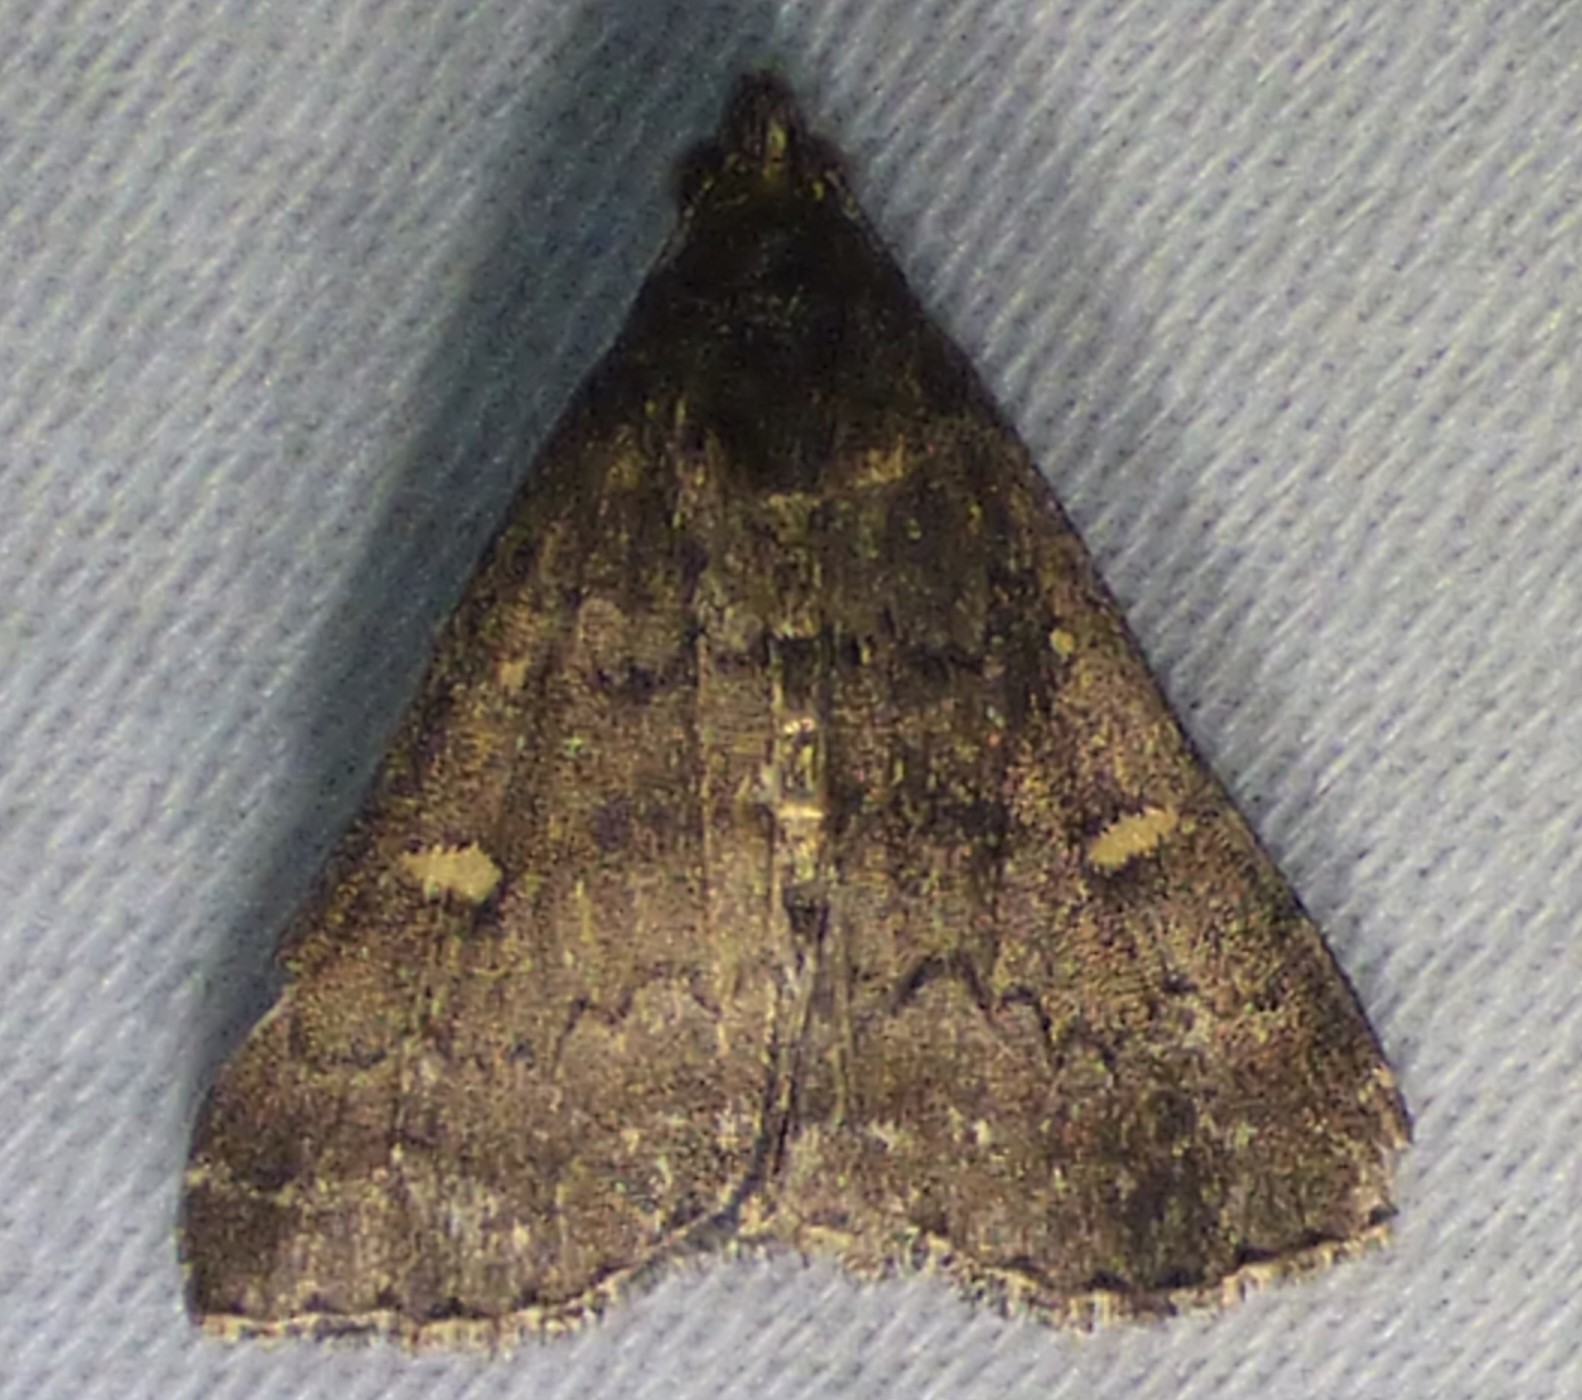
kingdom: Animalia
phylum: Arthropoda
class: Insecta
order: Lepidoptera
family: Erebidae
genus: Tetanolita
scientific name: Tetanolita mynesalis
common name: Smoky tetanolita moth
